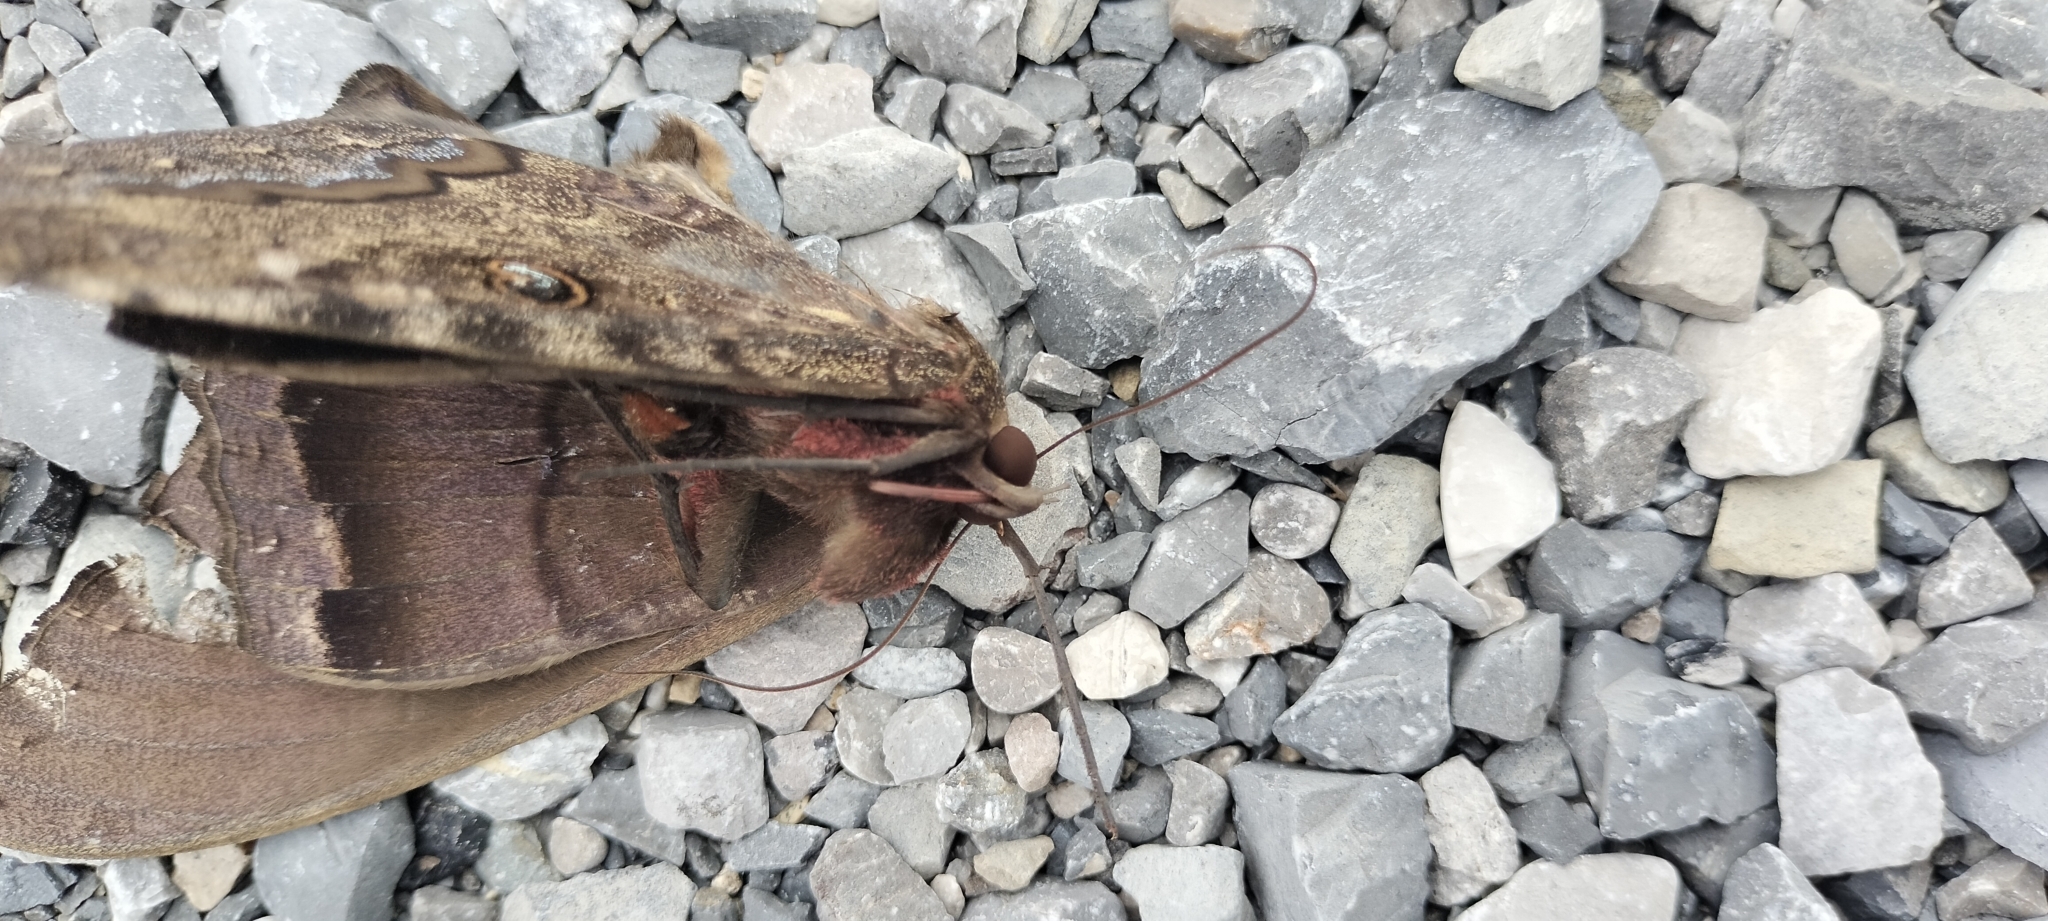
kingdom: Animalia
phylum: Arthropoda
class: Insecta
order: Lepidoptera
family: Erebidae
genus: Ascalapha
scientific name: Ascalapha odorata
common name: Black witch
